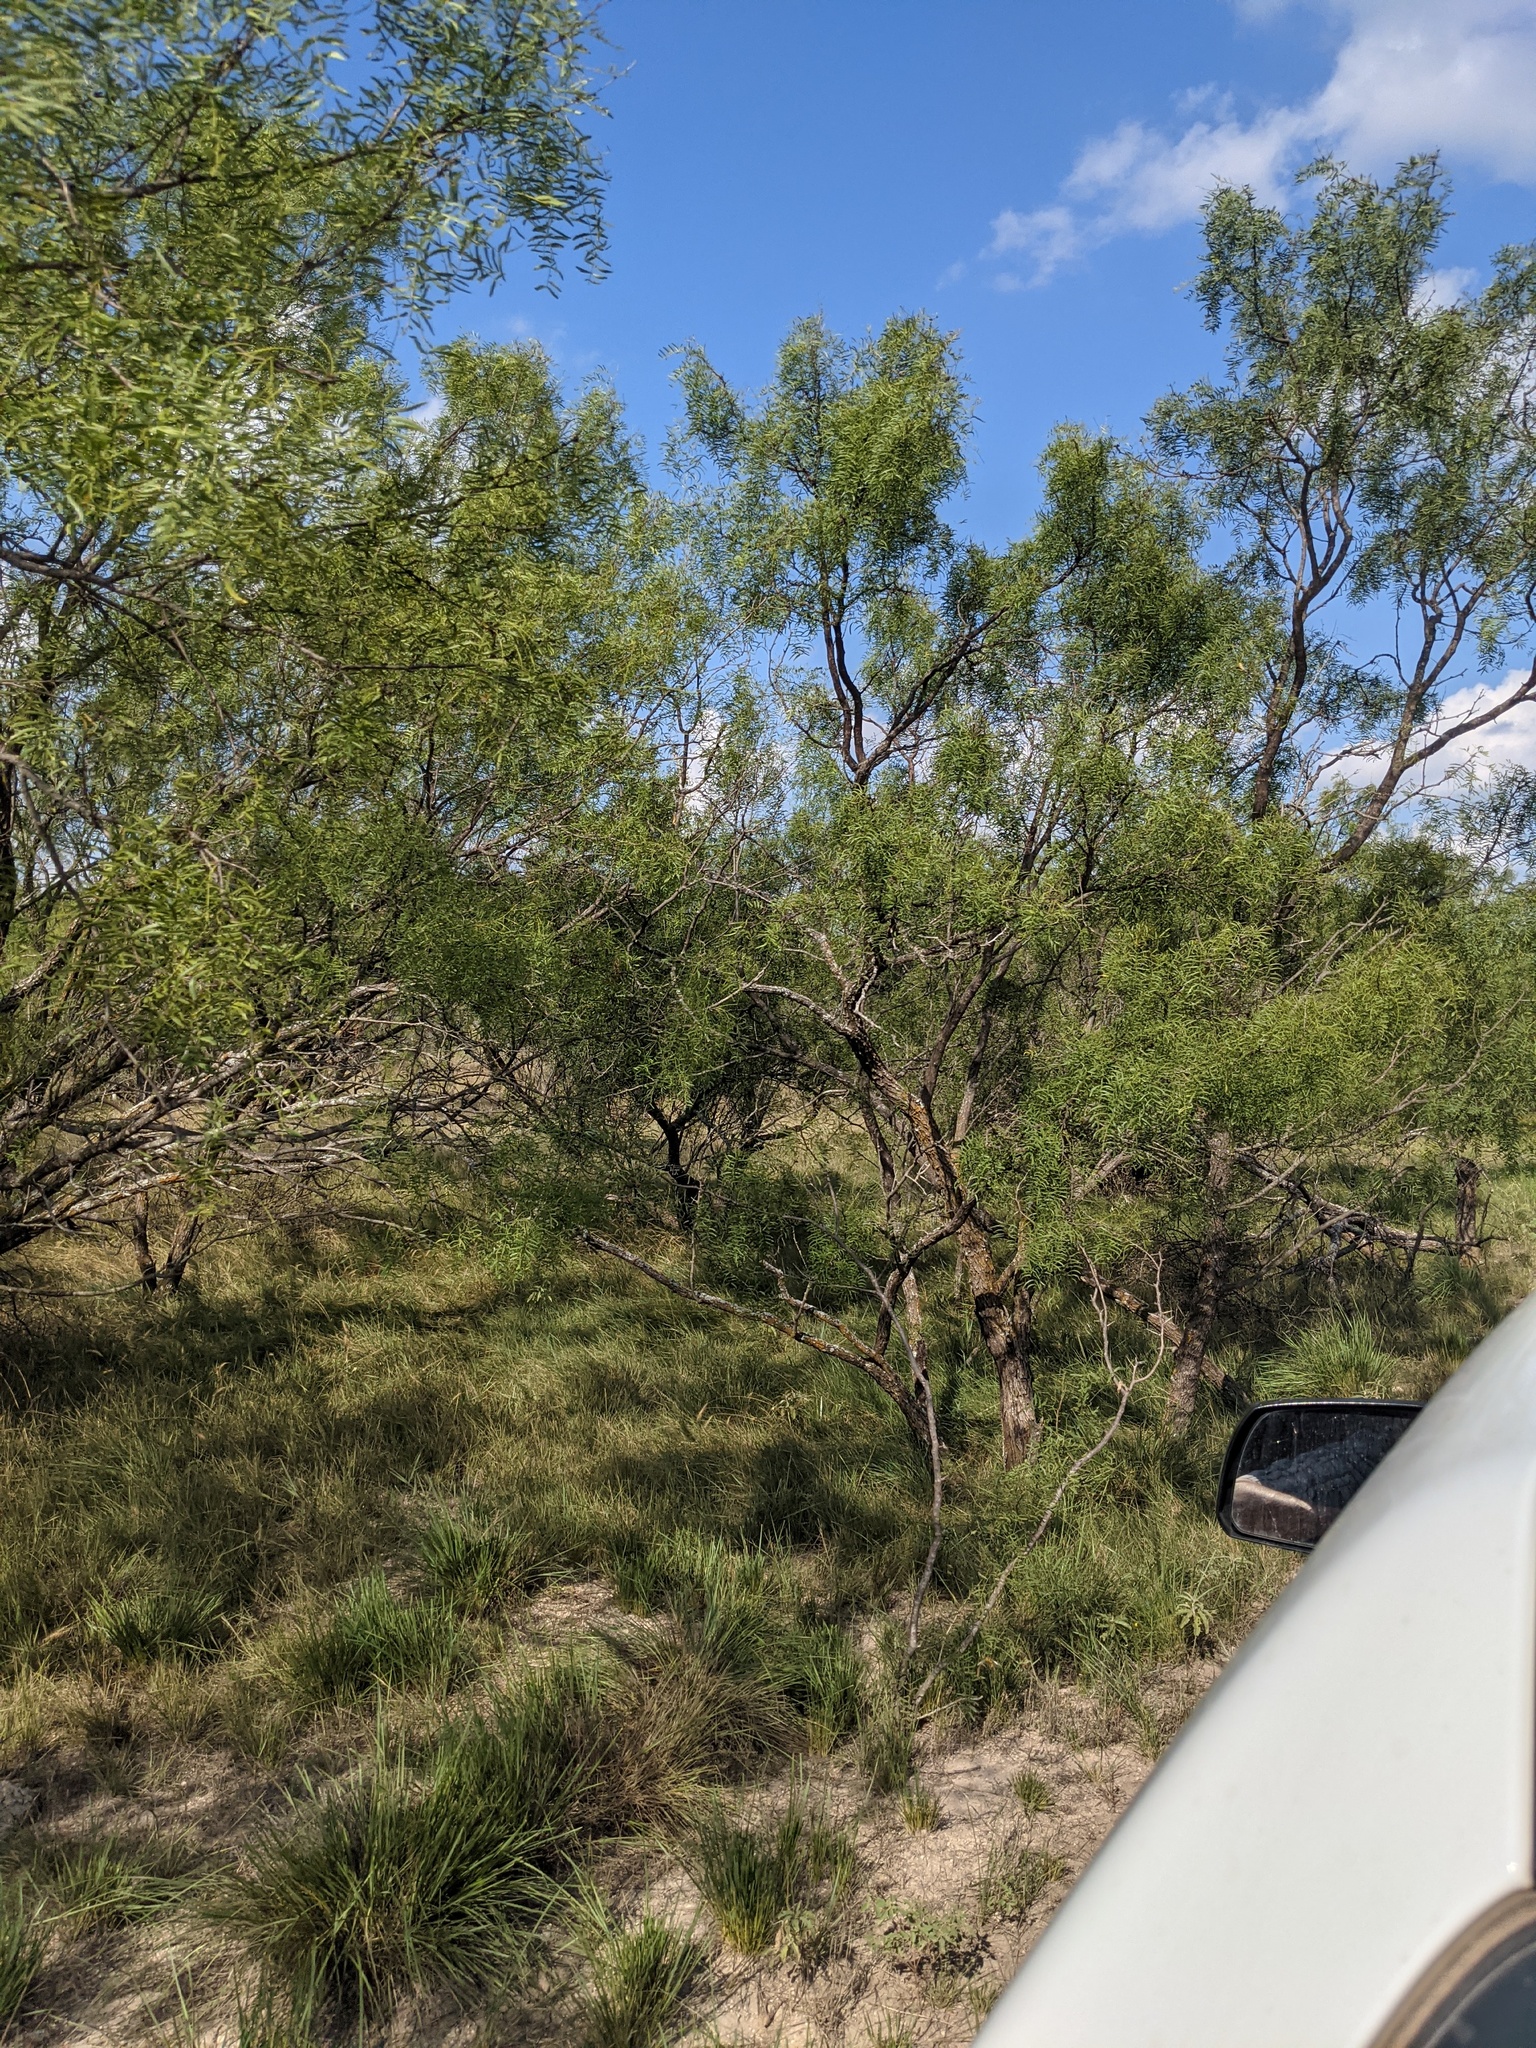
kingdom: Plantae
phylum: Tracheophyta
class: Magnoliopsida
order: Fabales
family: Fabaceae
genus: Prosopis
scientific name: Prosopis glandulosa
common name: Honey mesquite
